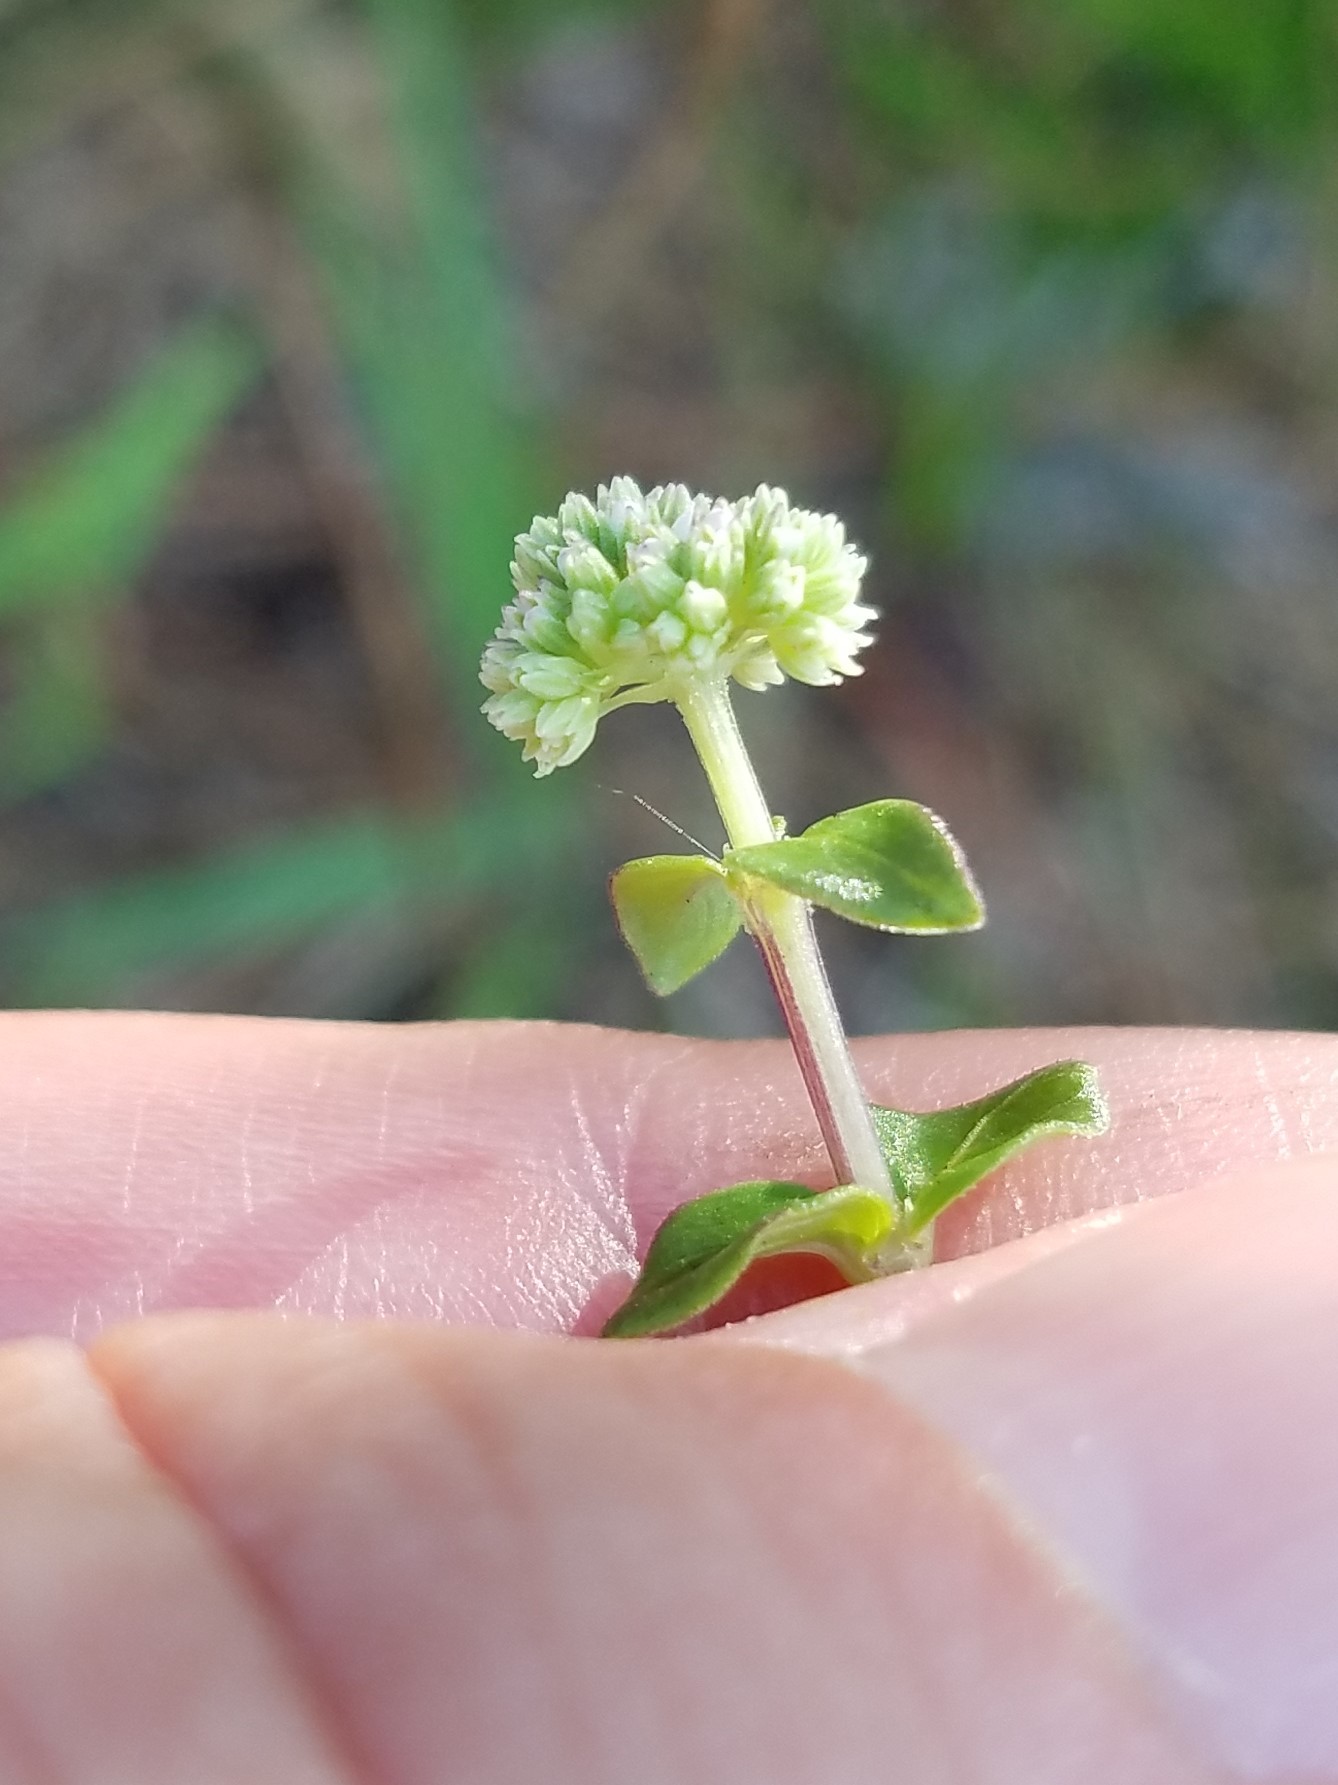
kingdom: Plantae
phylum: Tracheophyta
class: Magnoliopsida
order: Gentianales
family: Loganiaceae
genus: Mitreola
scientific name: Mitreola sessilifolia
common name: Swamp hornpod
